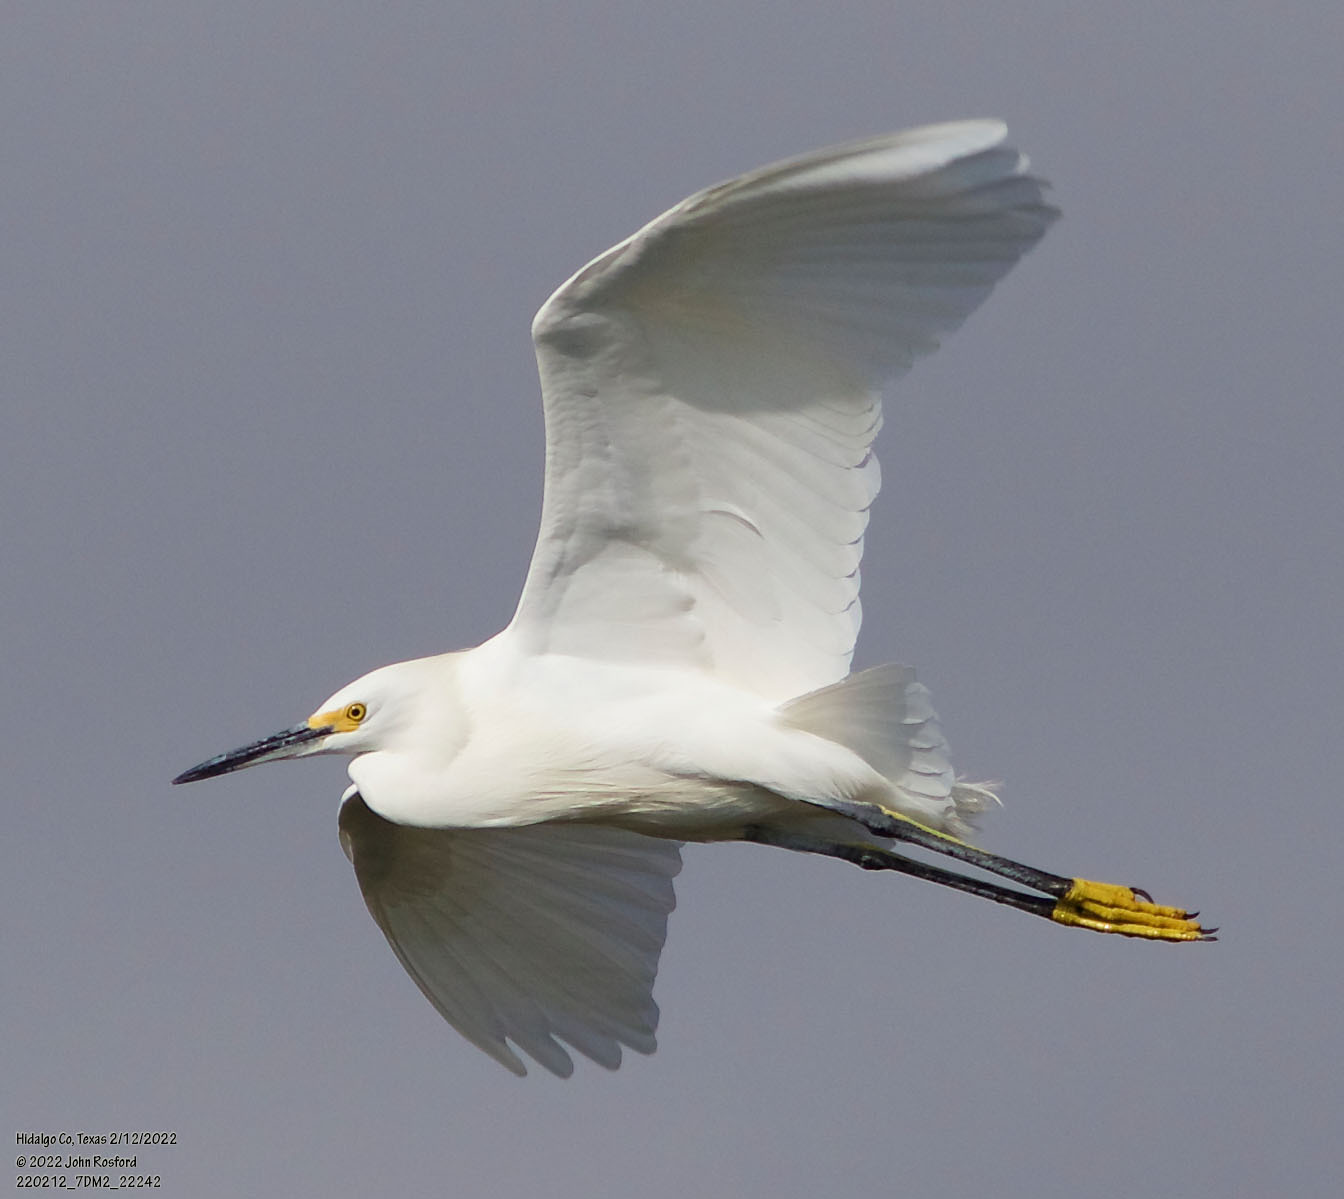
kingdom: Animalia
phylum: Chordata
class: Aves
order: Pelecaniformes
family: Ardeidae
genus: Egretta
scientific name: Egretta thula
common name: Snowy egret
